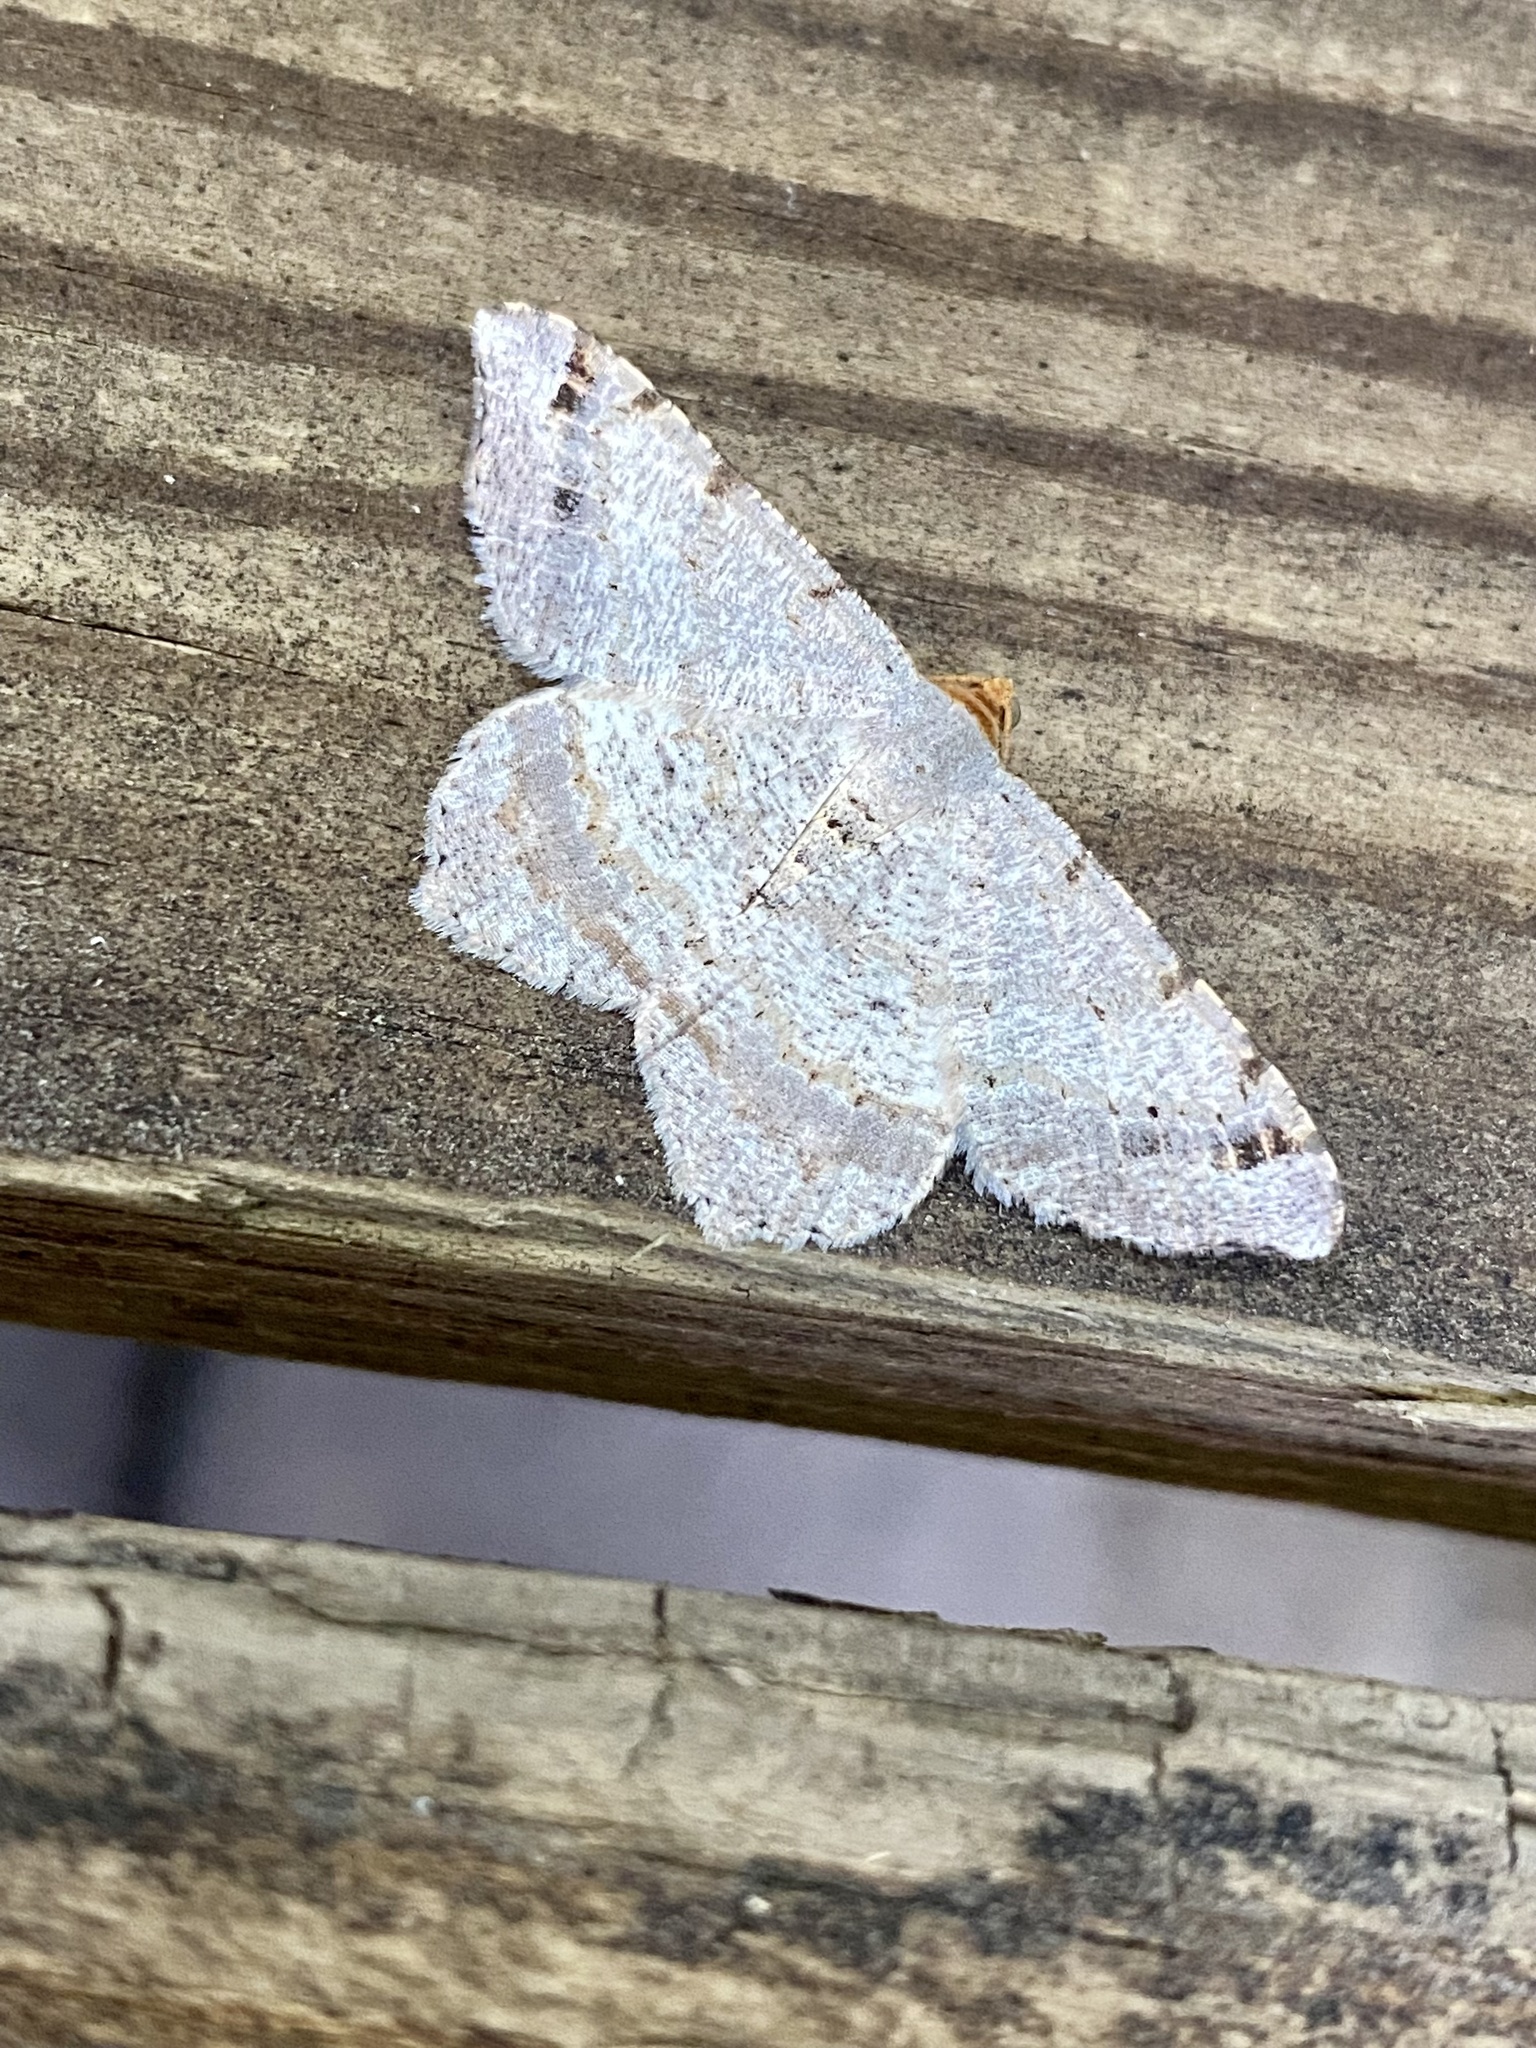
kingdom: Animalia
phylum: Arthropoda
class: Insecta
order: Lepidoptera
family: Geometridae
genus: Macaria
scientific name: Macaria bisignata
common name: Red-headed inchworm
